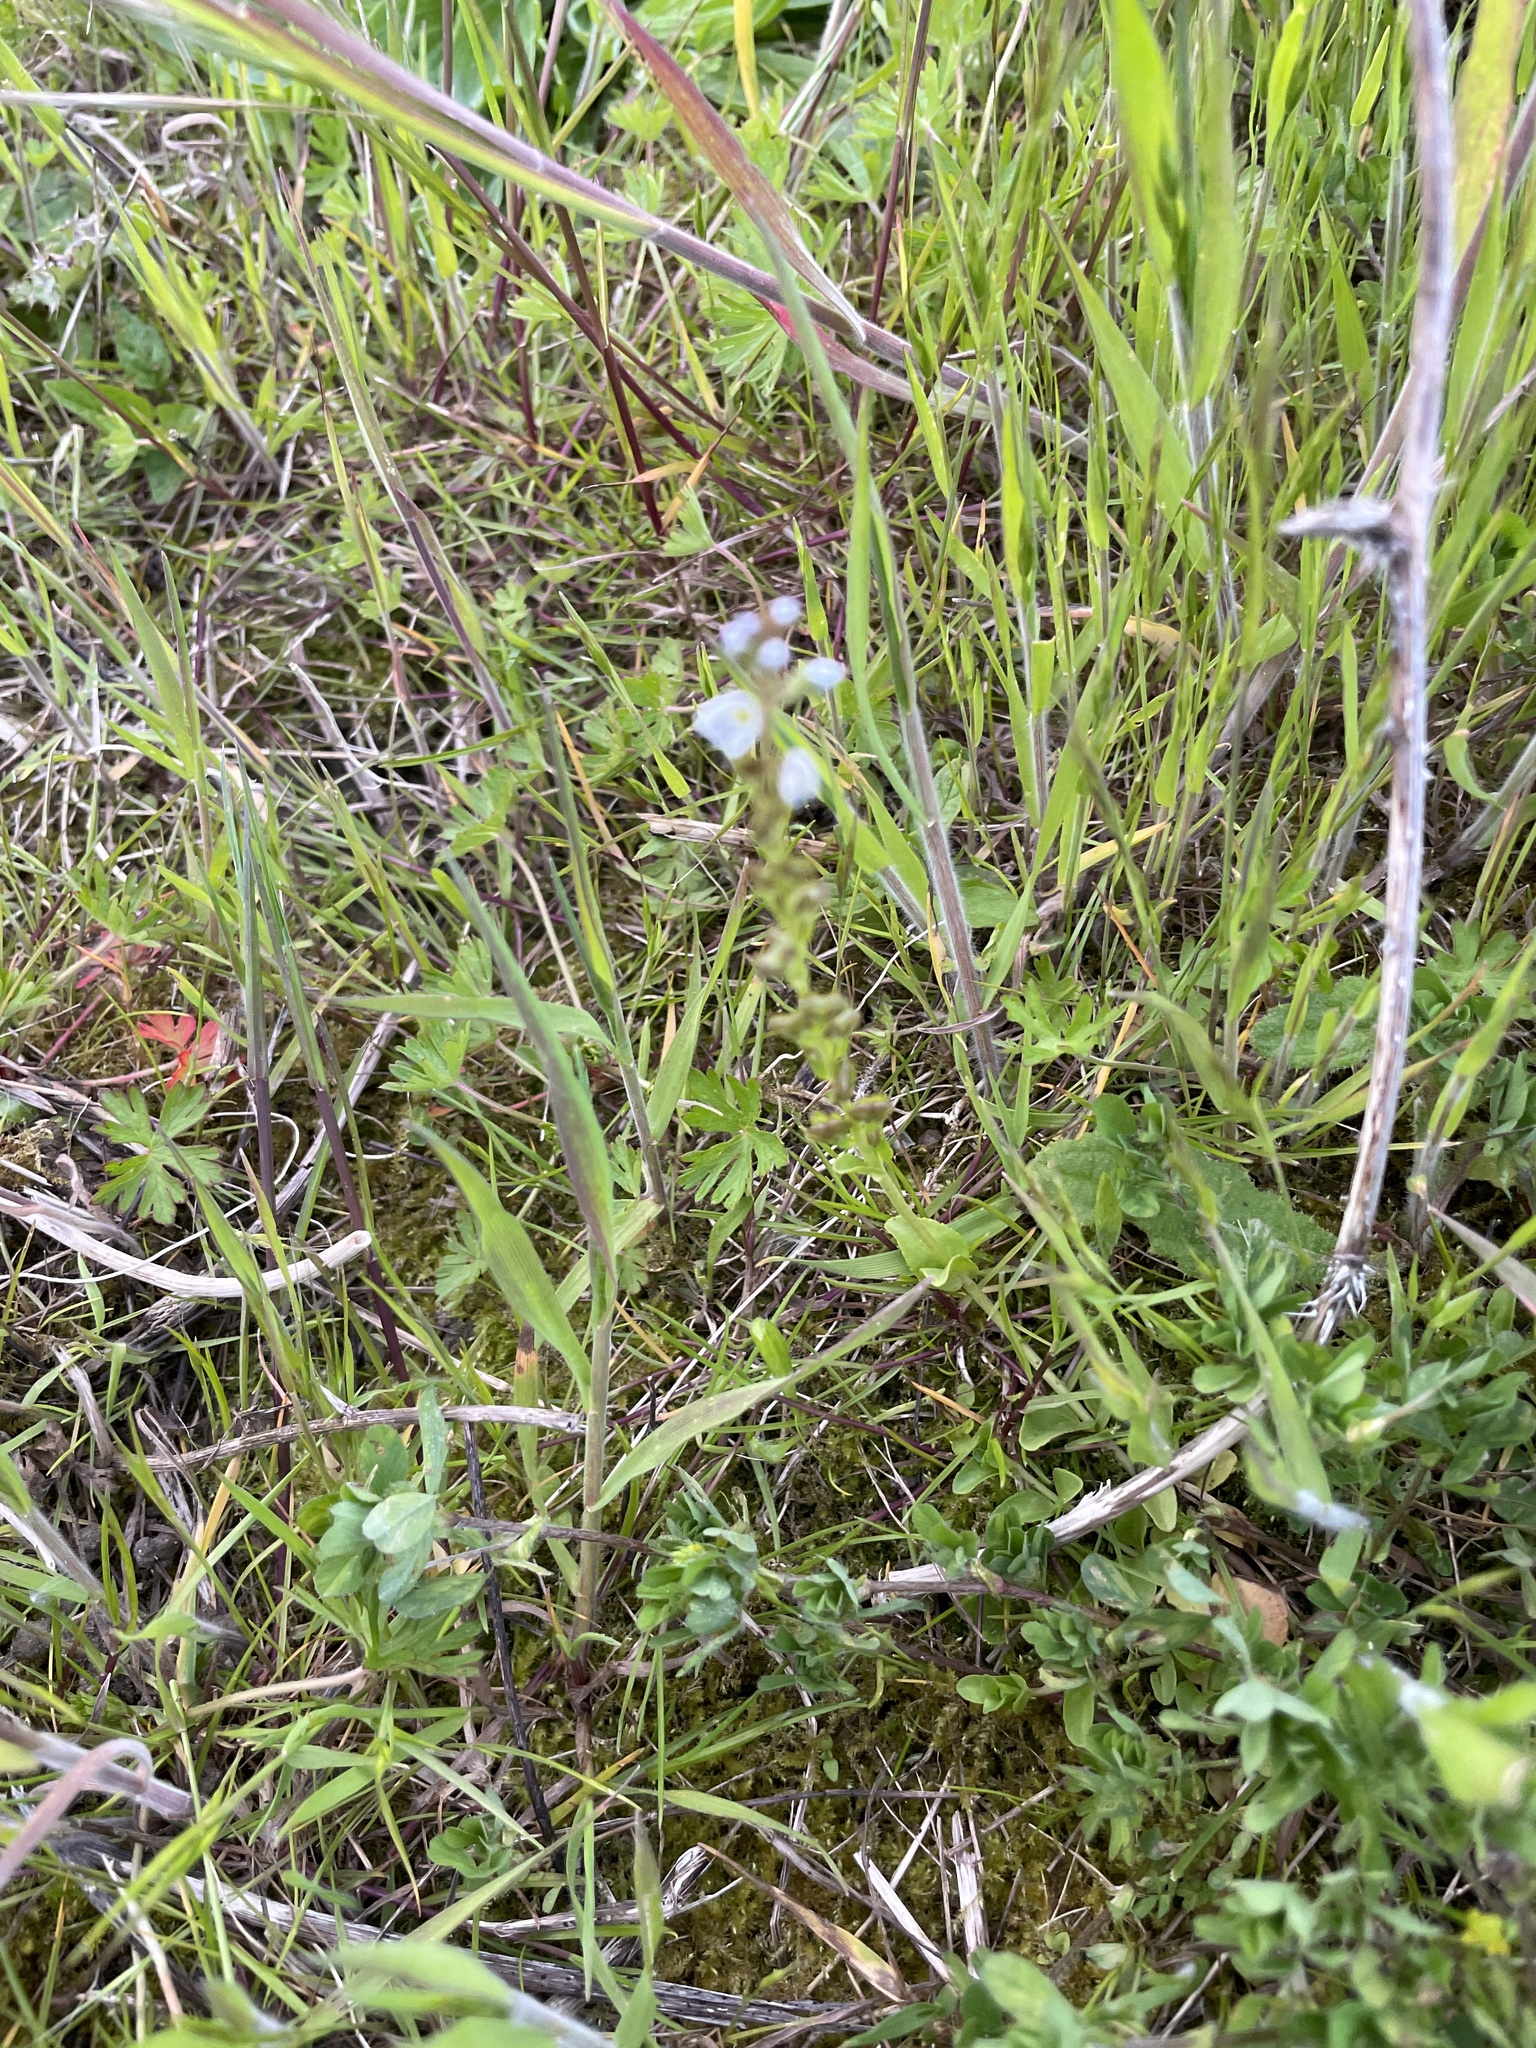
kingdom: Plantae
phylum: Tracheophyta
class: Magnoliopsida
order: Lamiales
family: Plantaginaceae
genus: Veronica
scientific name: Veronica serpyllifolia
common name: Thyme-leaved speedwell
